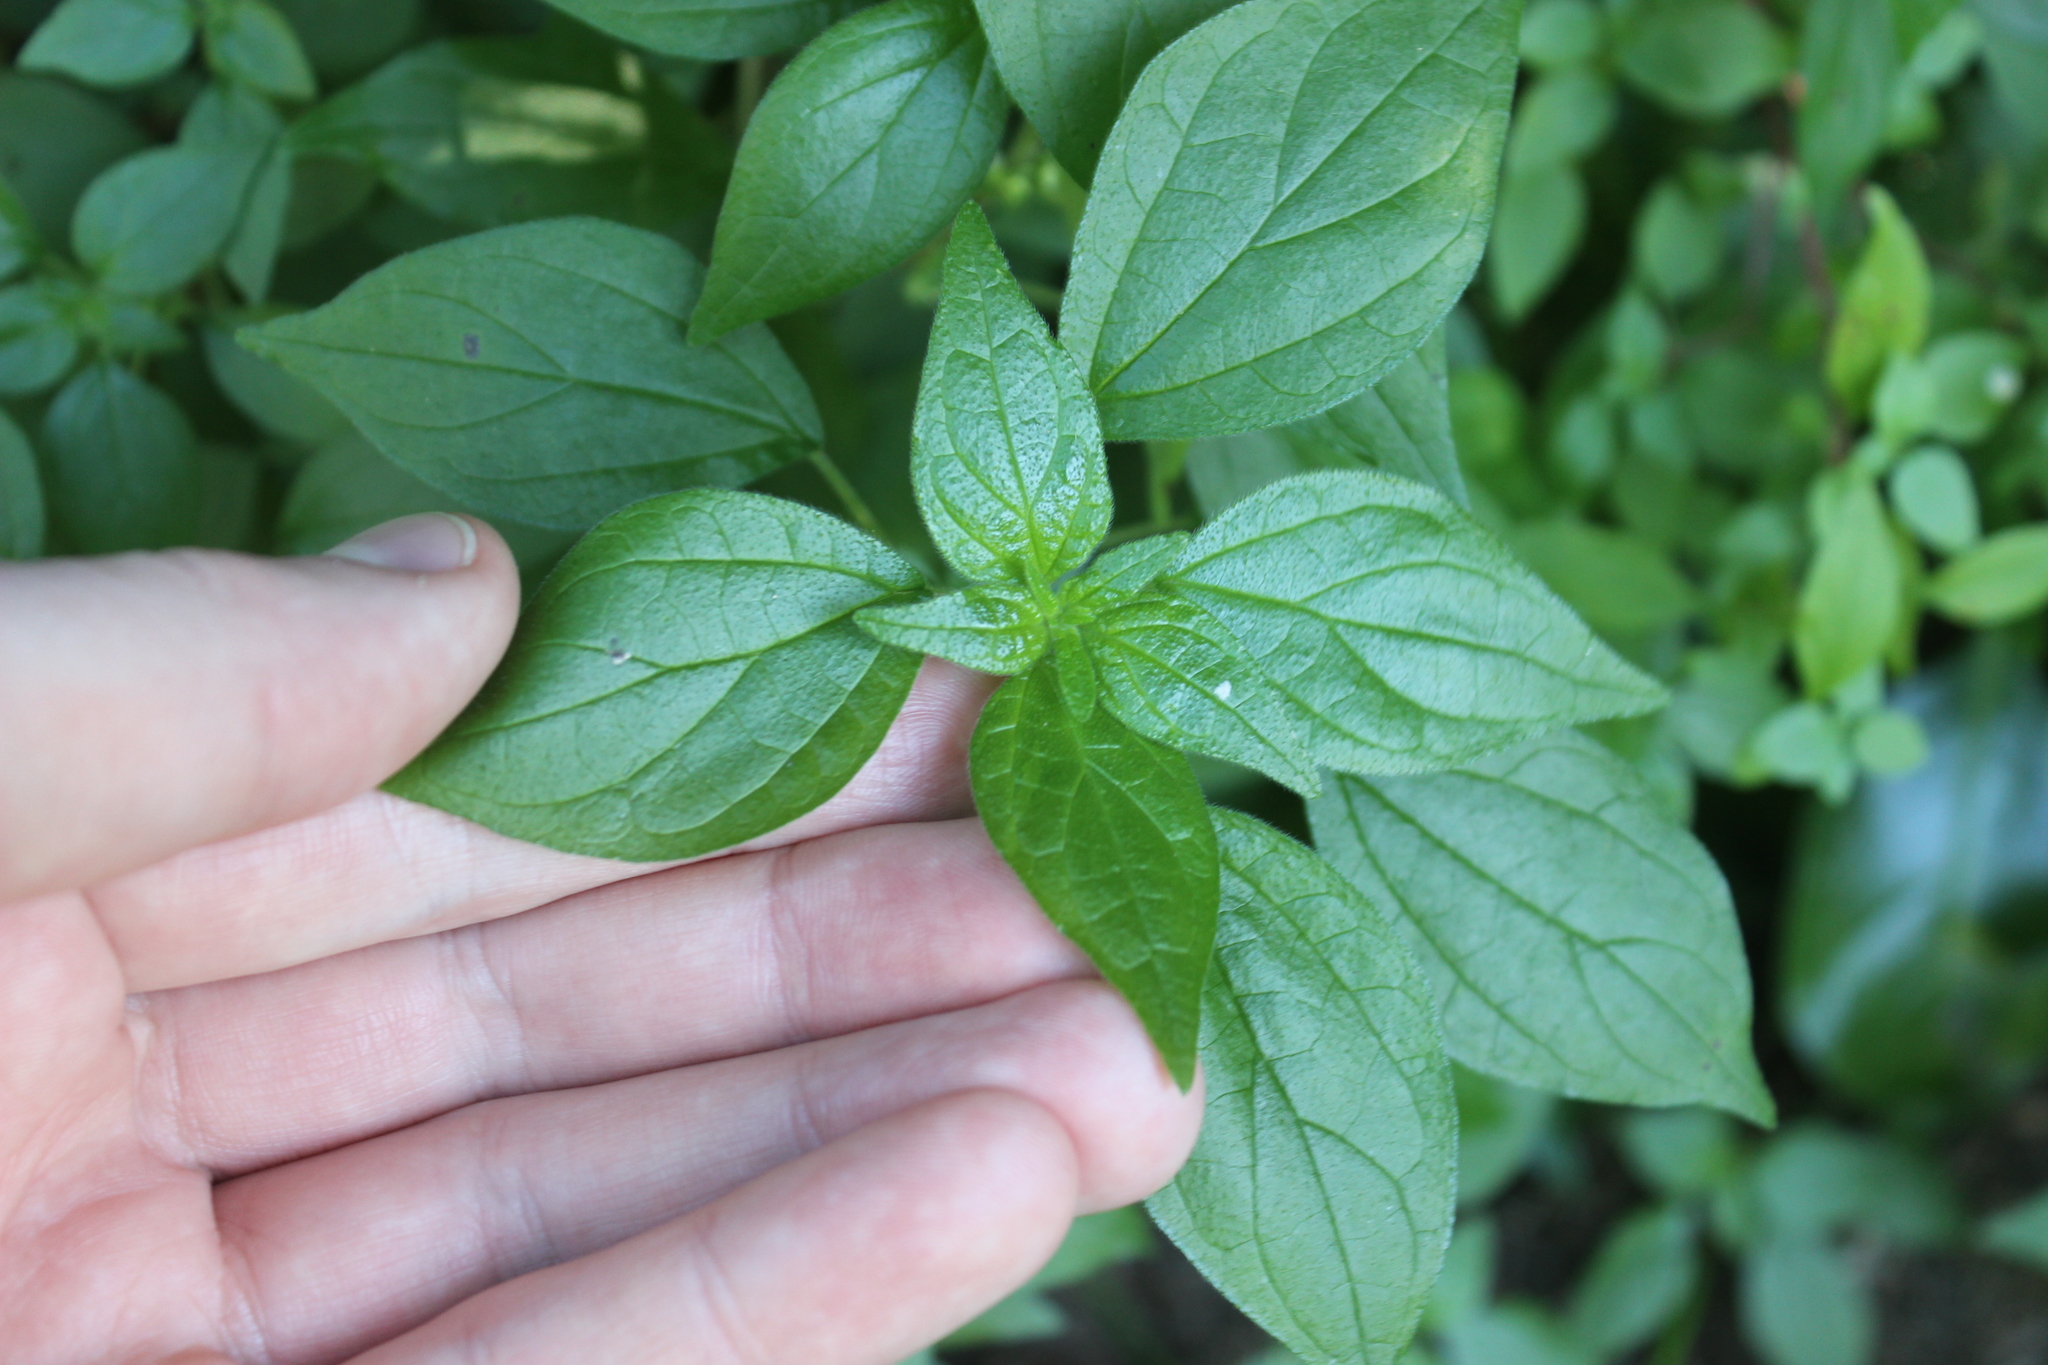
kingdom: Plantae
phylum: Tracheophyta
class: Magnoliopsida
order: Rosales
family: Urticaceae
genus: Parietaria
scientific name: Parietaria judaica
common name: Pellitory-of-the-wall
